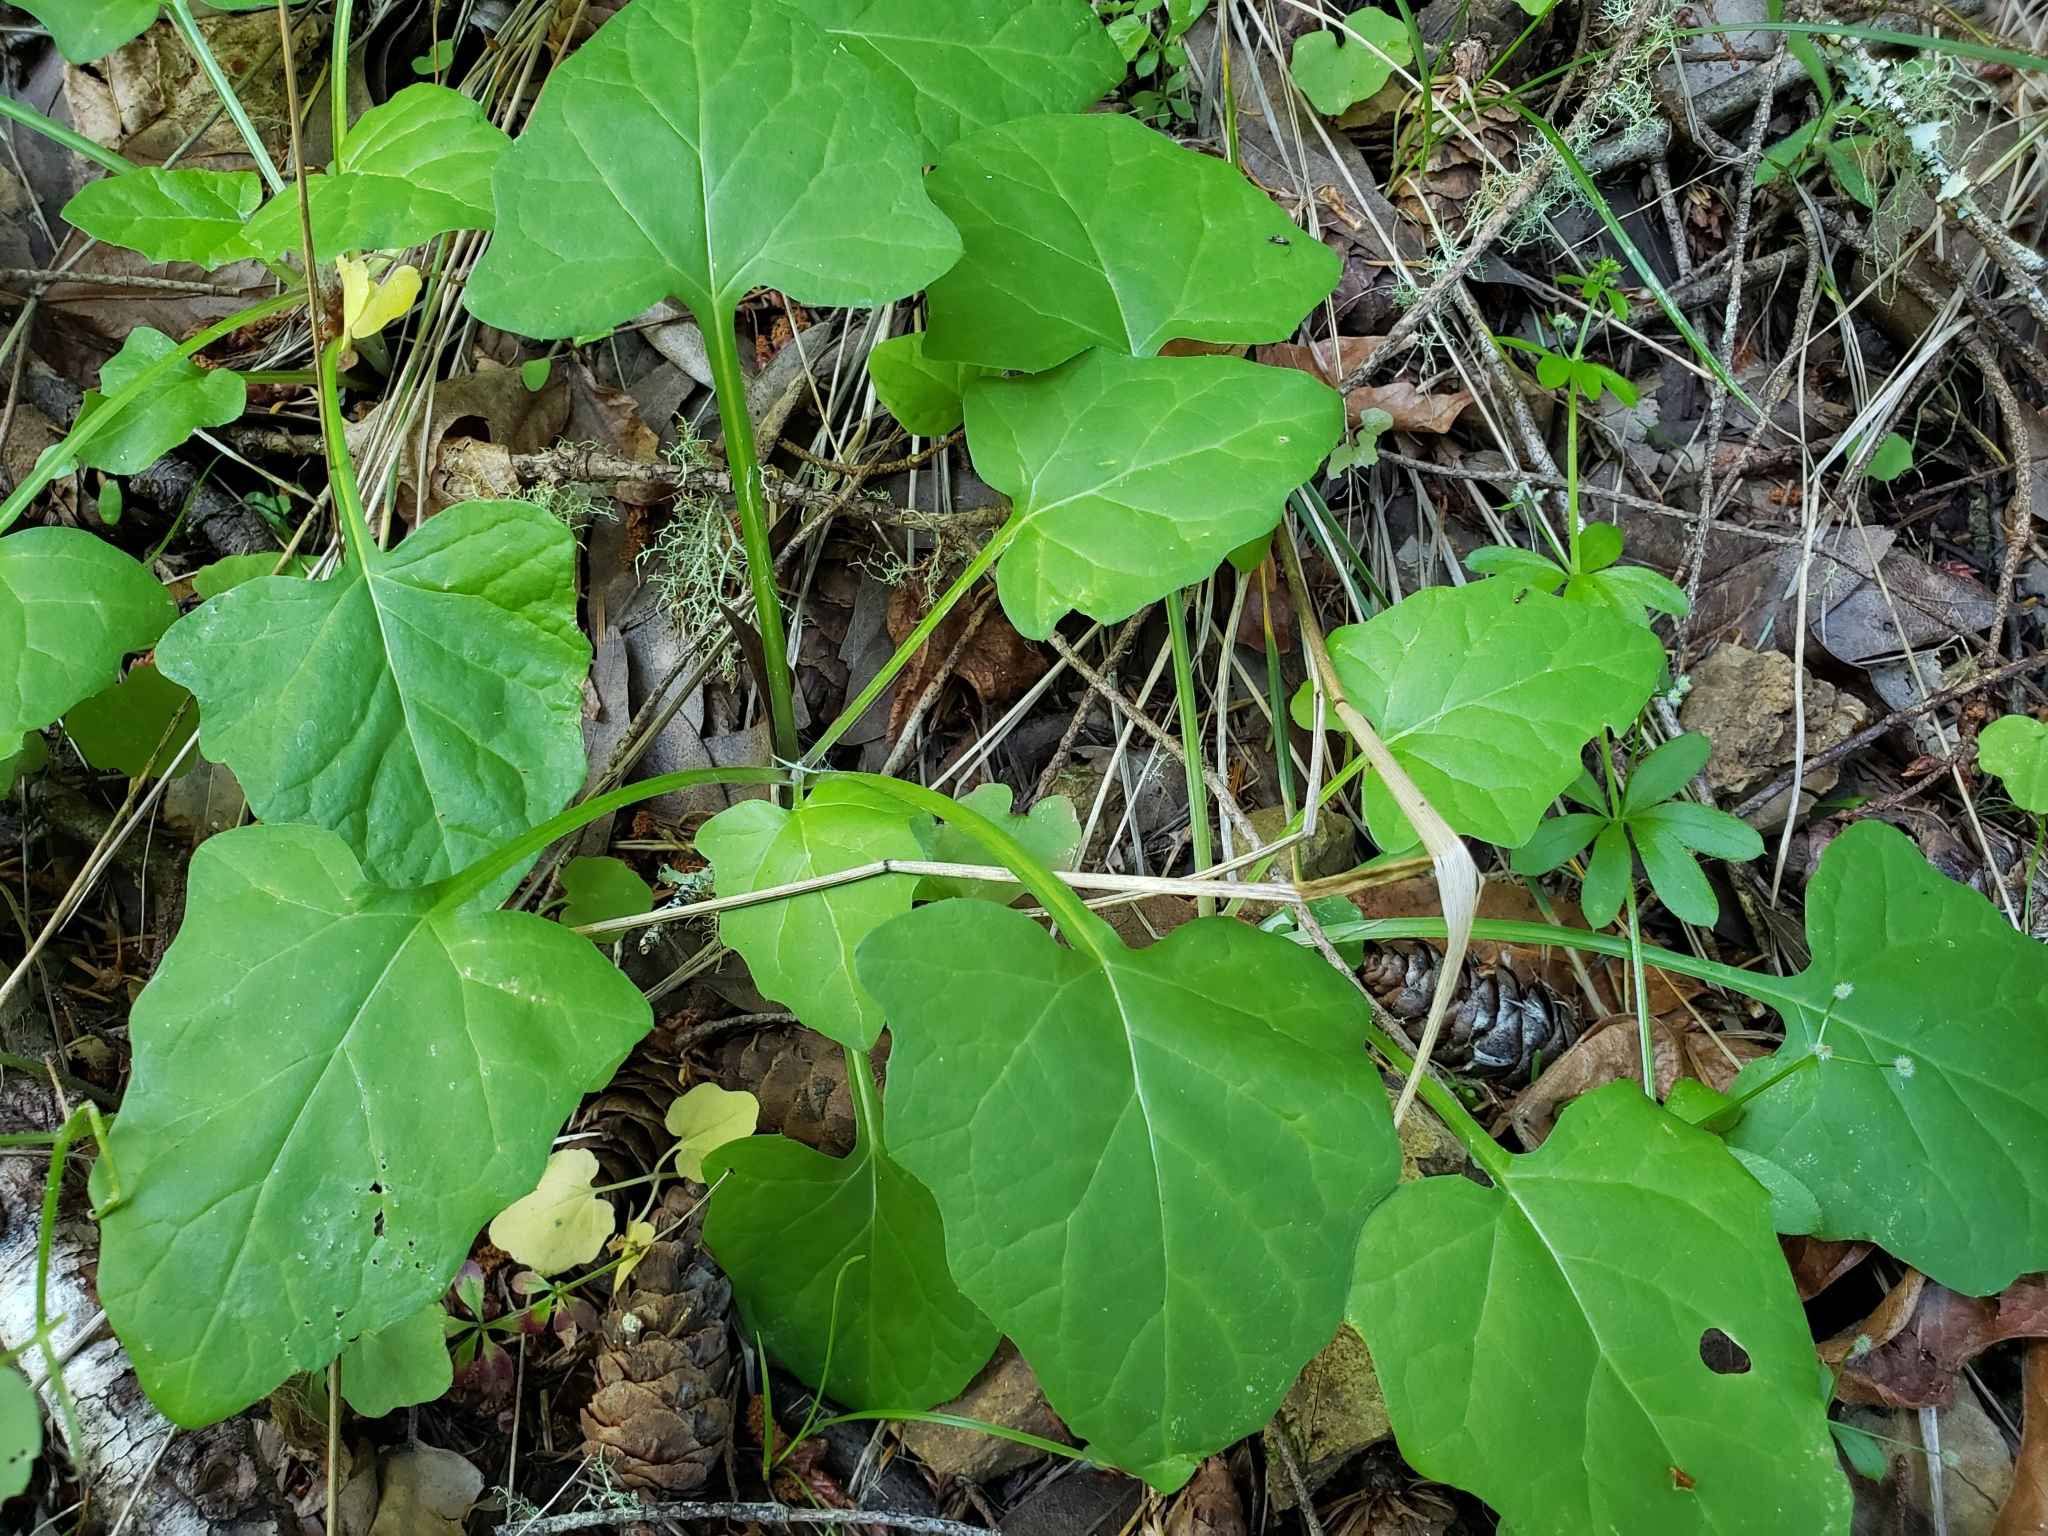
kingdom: Plantae
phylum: Tracheophyta
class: Magnoliopsida
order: Asterales
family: Asteraceae
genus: Adenocaulon
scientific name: Adenocaulon bicolor
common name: Trailplant
